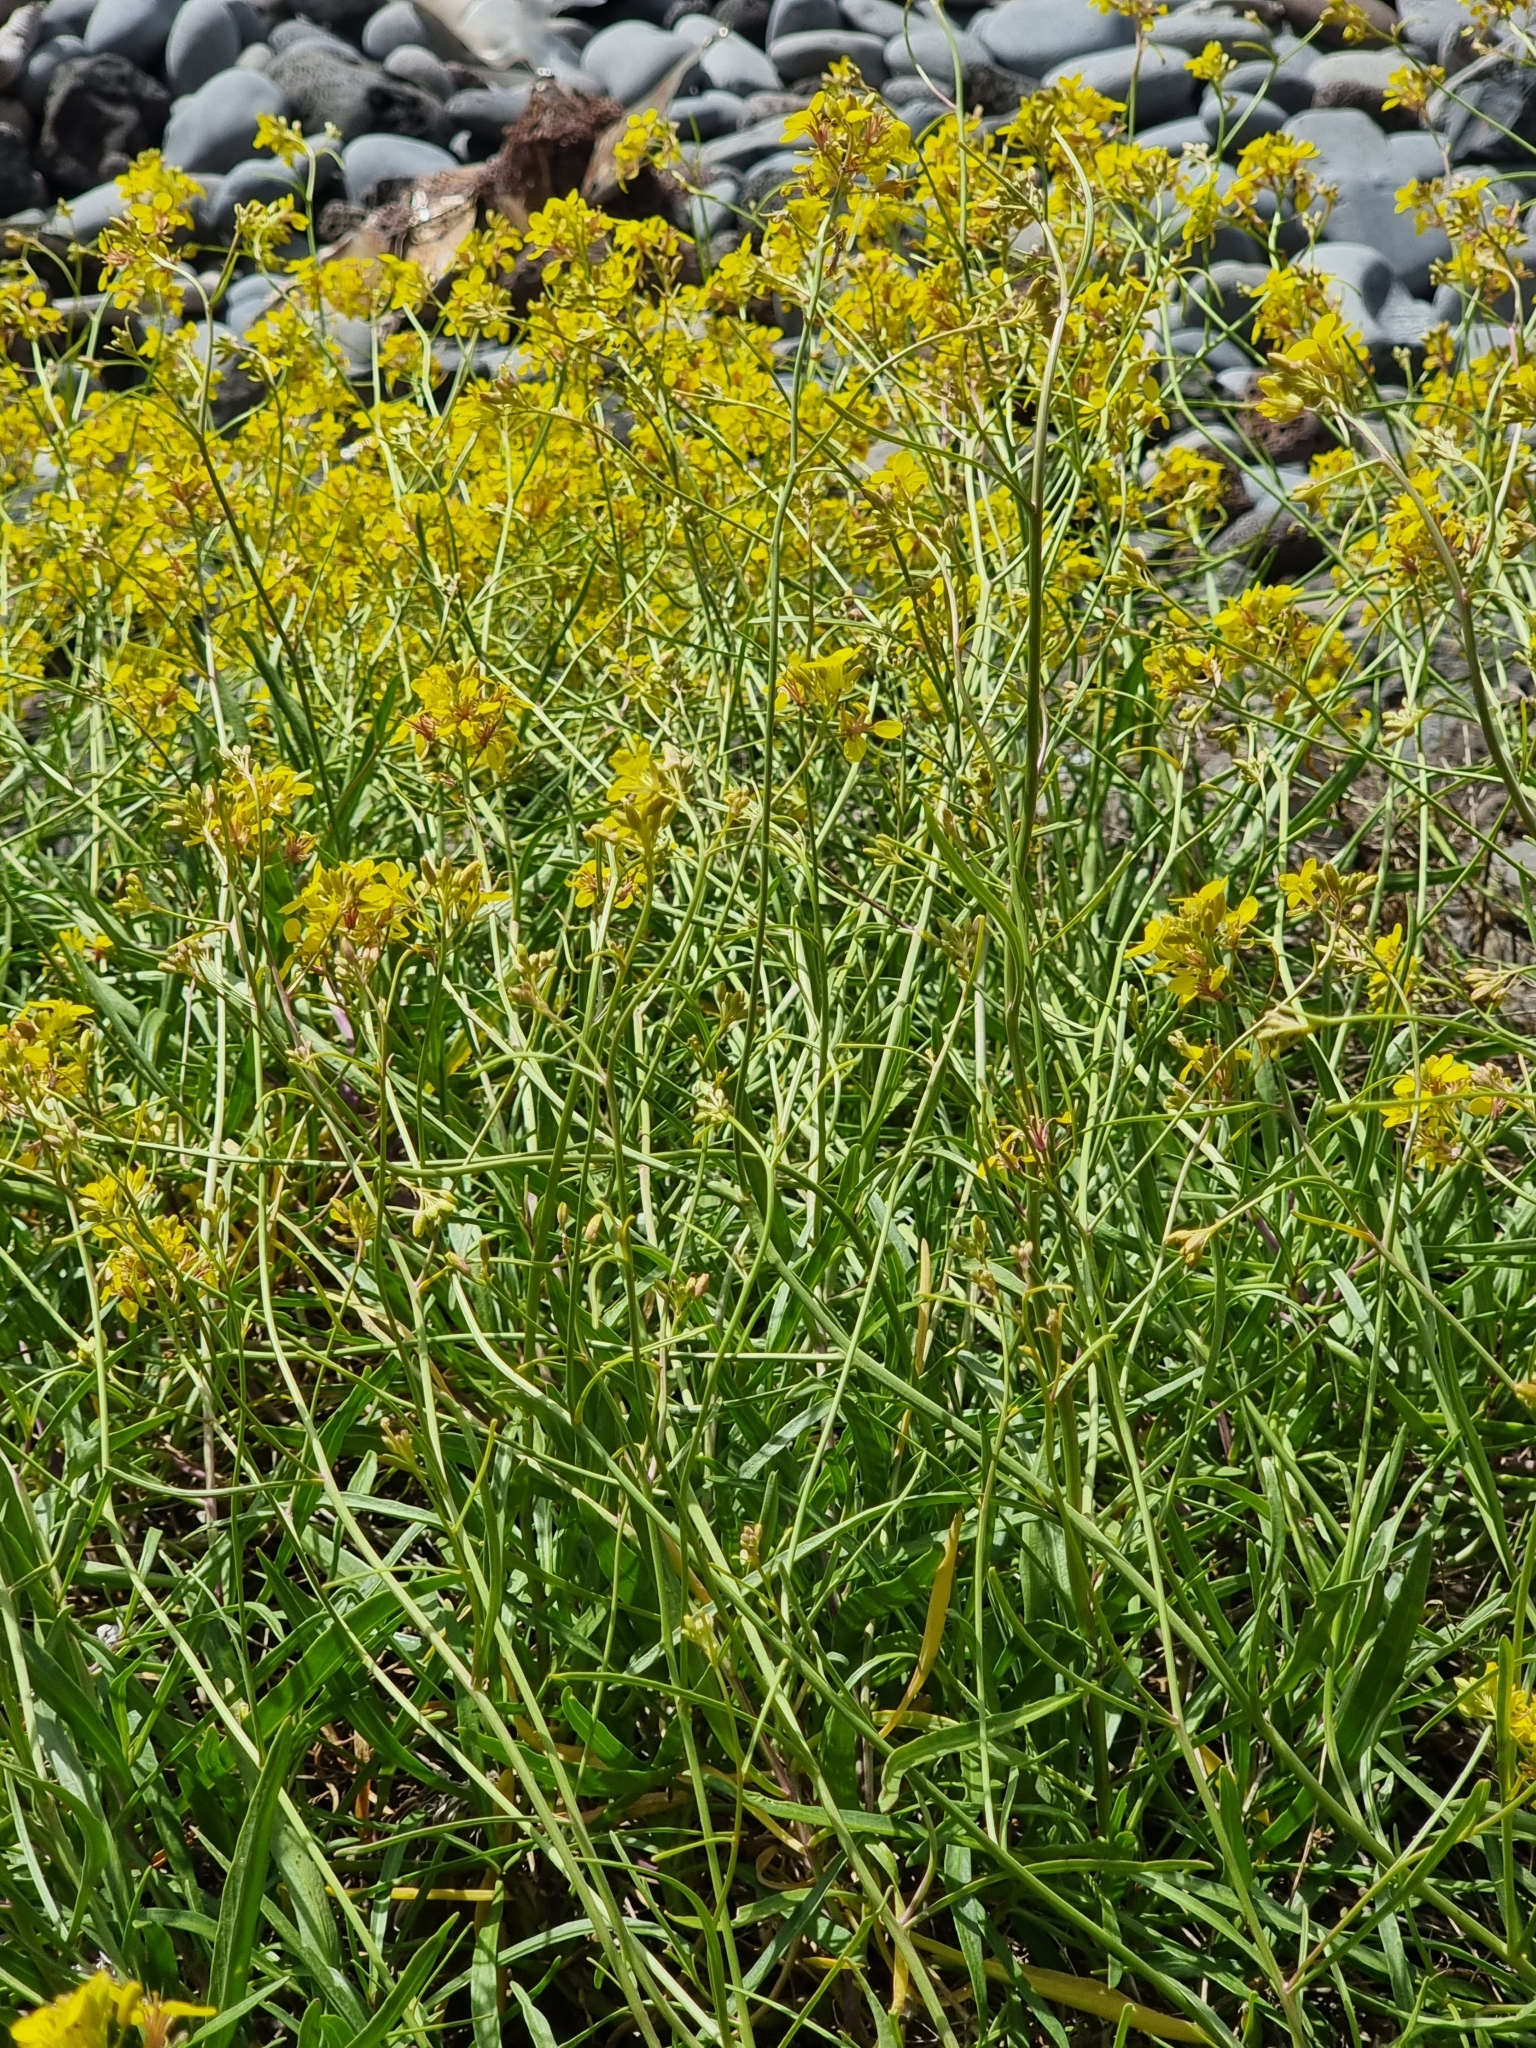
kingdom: Plantae
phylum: Tracheophyta
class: Magnoliopsida
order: Brassicales
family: Brassicaceae
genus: Sinapidendron
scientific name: Sinapidendron angustifolium
